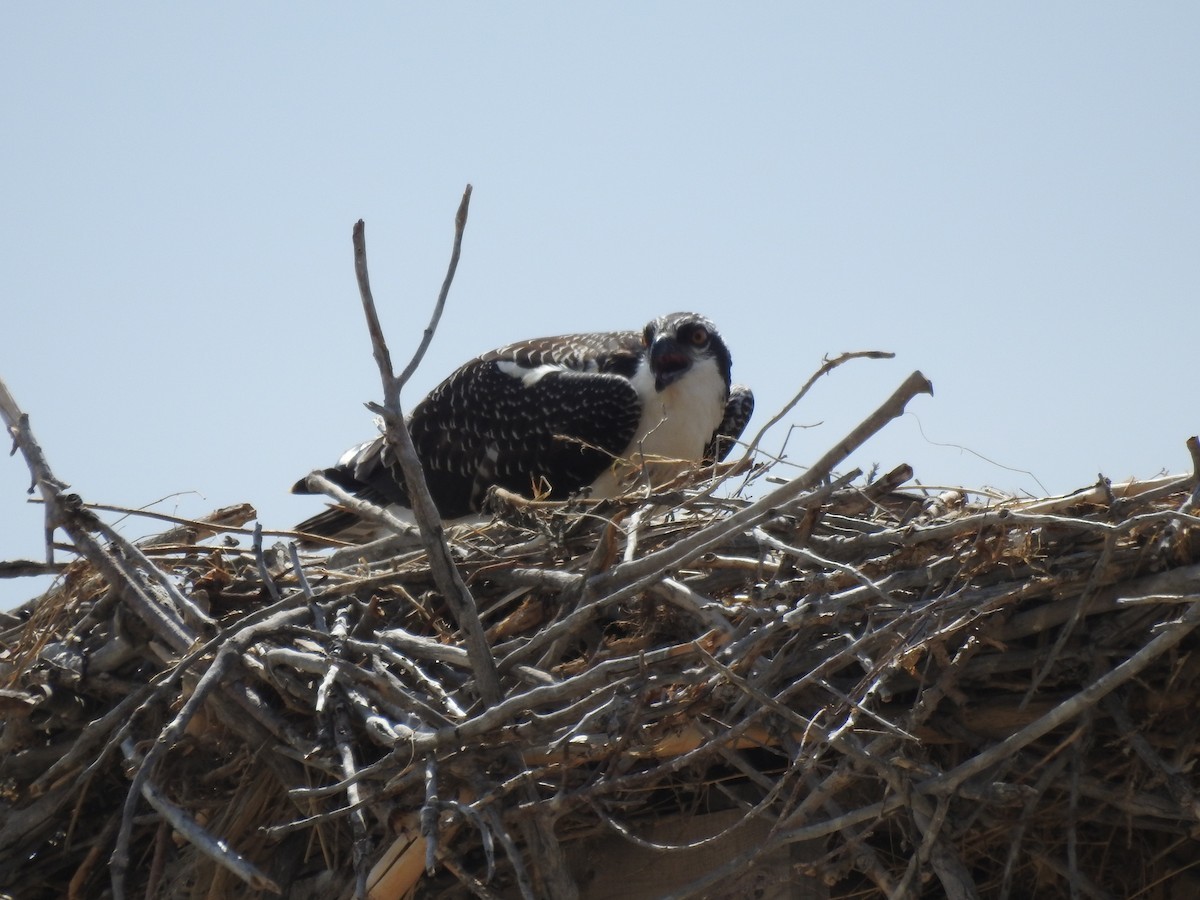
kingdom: Animalia
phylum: Chordata
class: Aves
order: Accipitriformes
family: Pandionidae
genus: Pandion
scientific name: Pandion haliaetus
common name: Osprey
